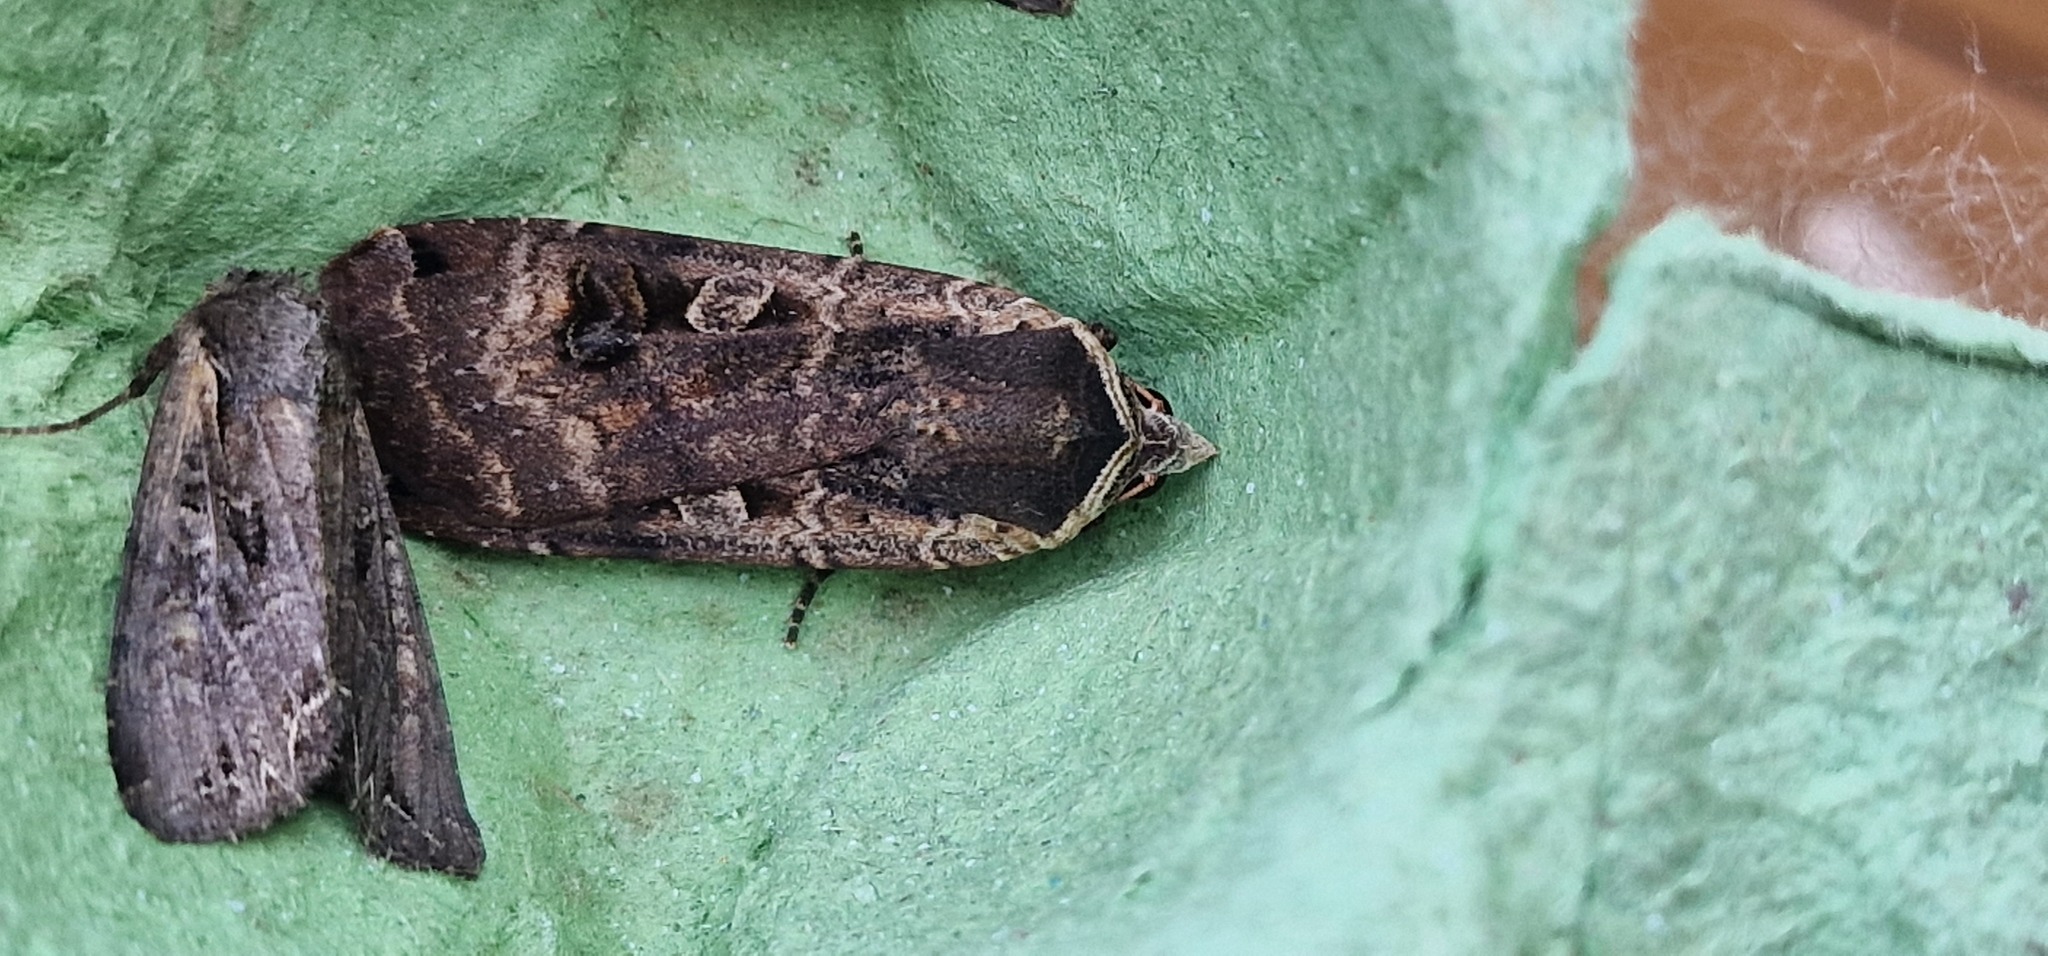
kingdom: Animalia
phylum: Arthropoda
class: Insecta
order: Lepidoptera
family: Noctuidae
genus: Noctua
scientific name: Noctua pronuba
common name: Large yellow underwing
